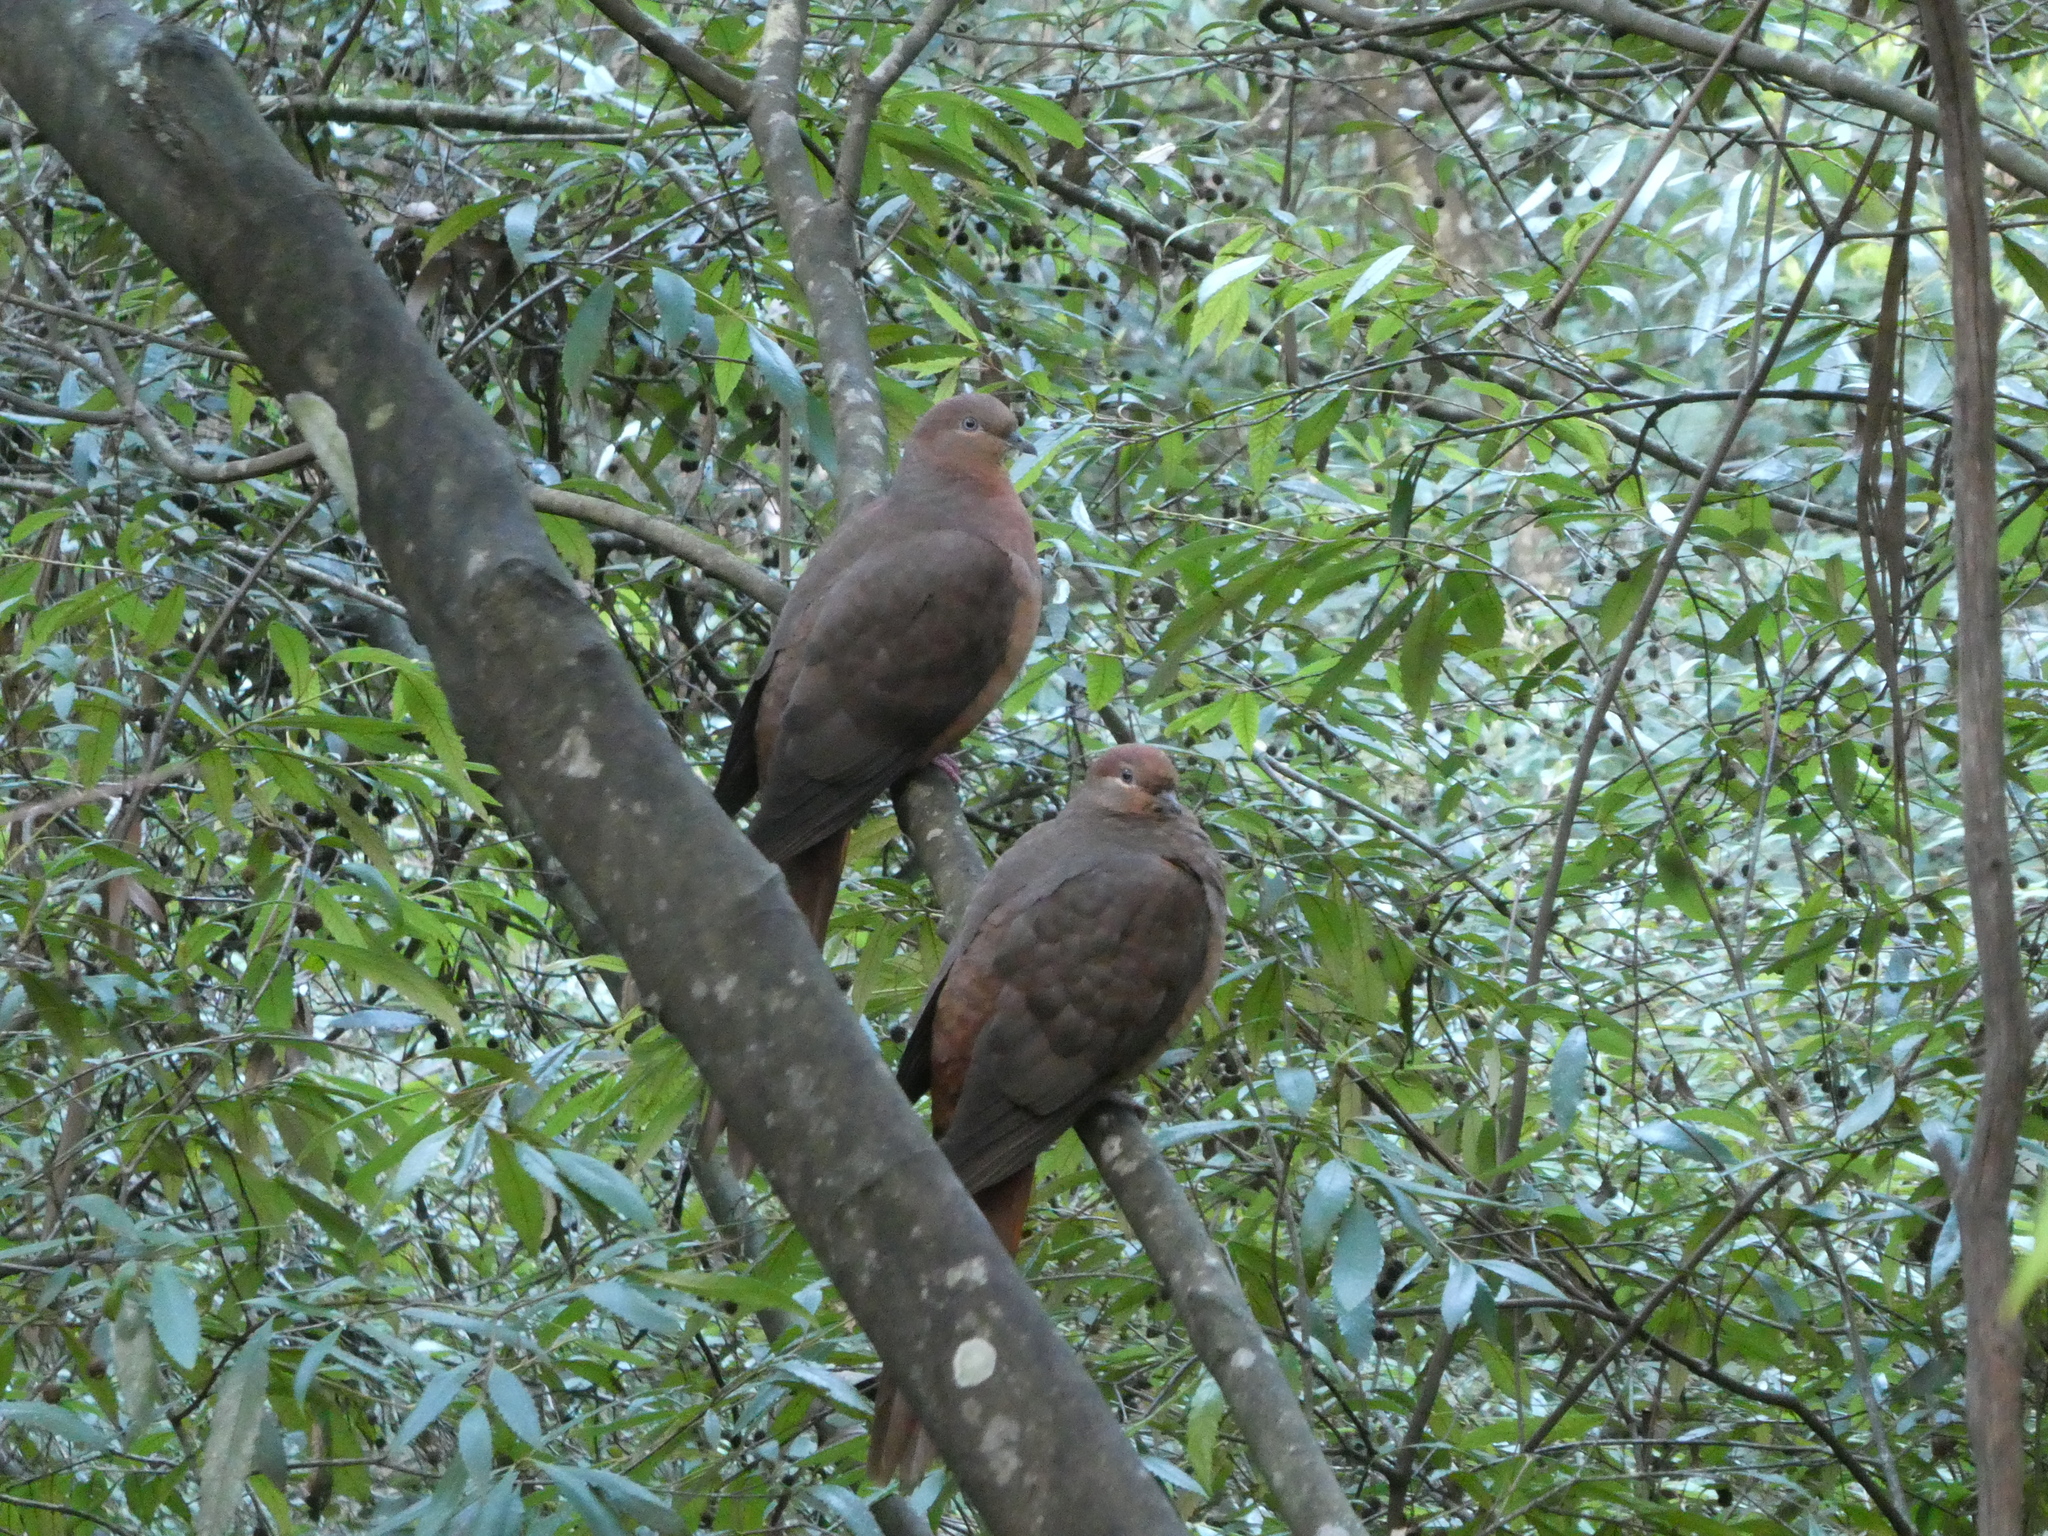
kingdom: Animalia
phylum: Chordata
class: Aves
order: Columbiformes
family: Columbidae
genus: Macropygia
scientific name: Macropygia phasianella
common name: Brown cuckoo-dove
